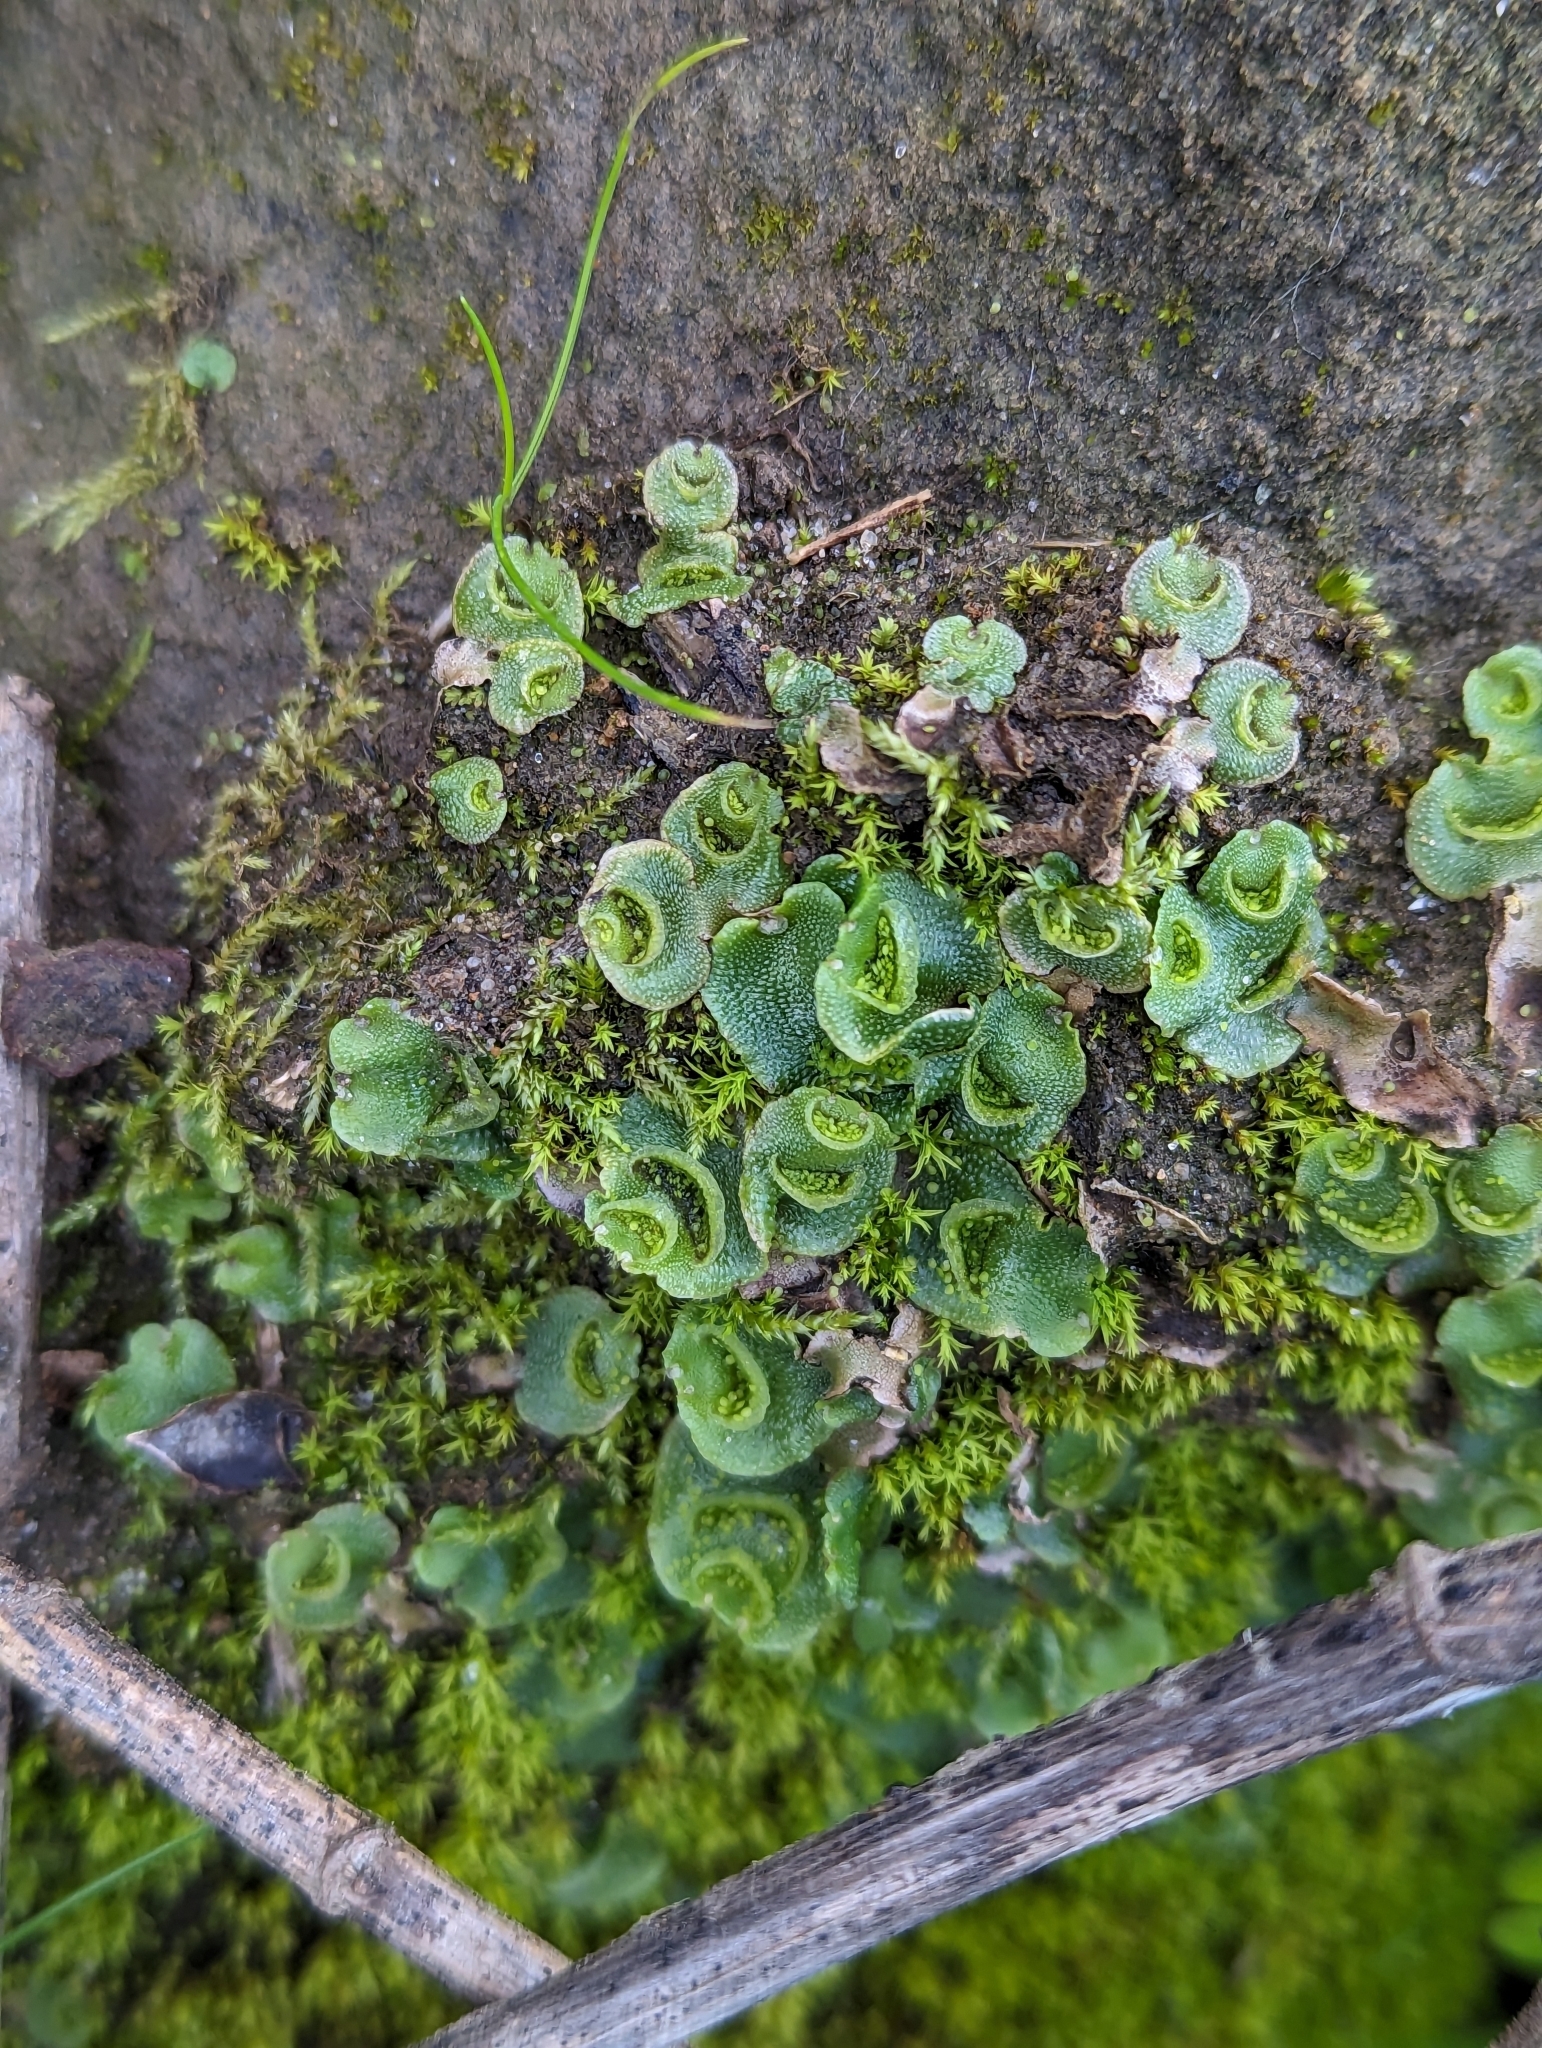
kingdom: Plantae
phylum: Marchantiophyta
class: Marchantiopsida
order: Lunulariales
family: Lunulariaceae
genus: Lunularia
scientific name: Lunularia cruciata
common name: Crescent-cup liverwort
